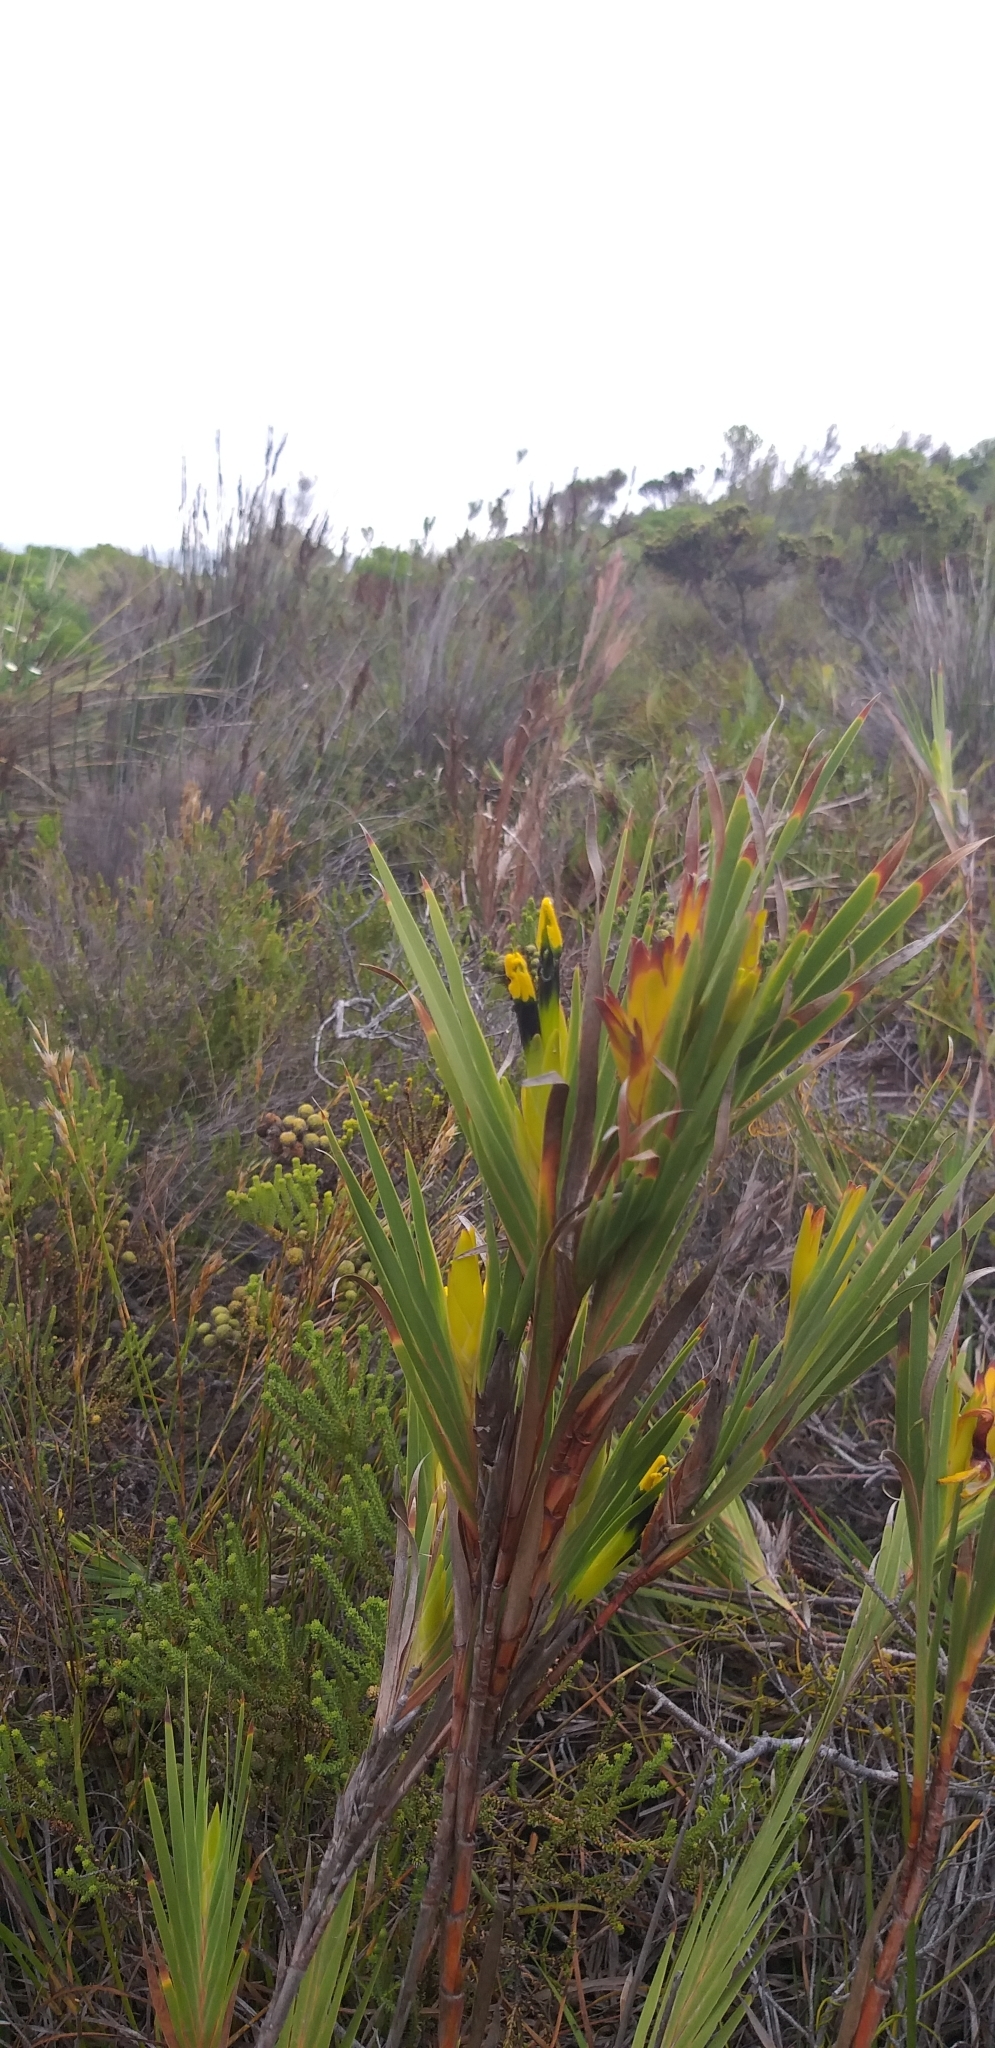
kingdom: Plantae
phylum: Tracheophyta
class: Liliopsida
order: Asparagales
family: Iridaceae
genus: Witsenia
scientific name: Witsenia maura
